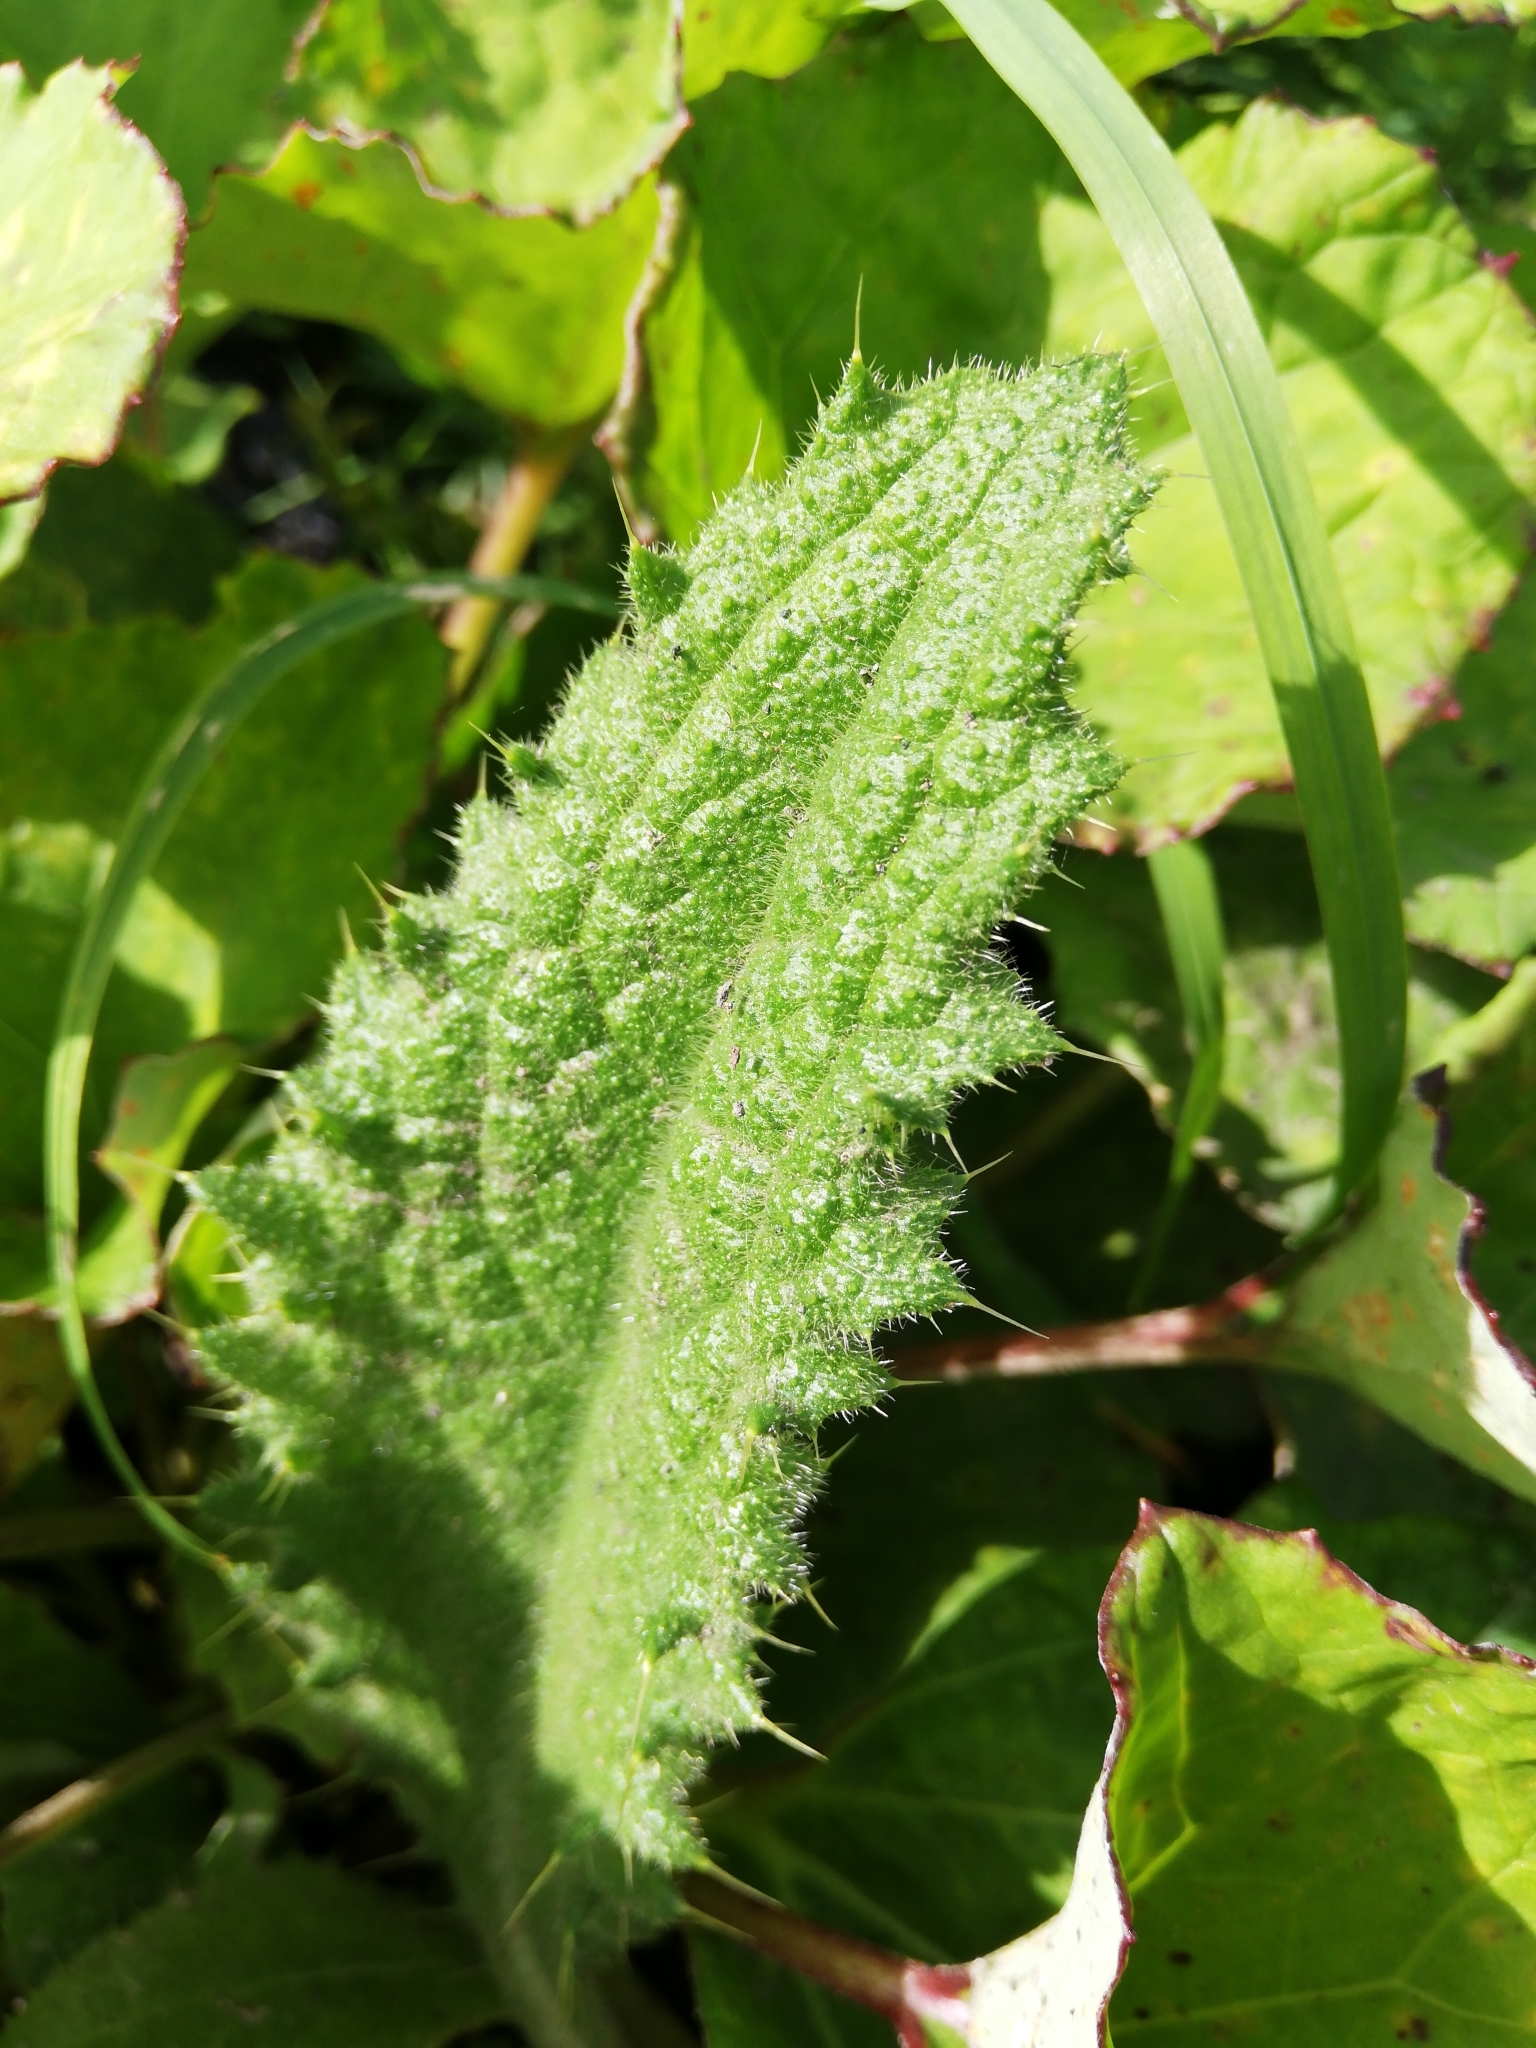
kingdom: Plantae
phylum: Tracheophyta
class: Magnoliopsida
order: Asterales
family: Asteraceae
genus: Cirsium
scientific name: Cirsium vulgare
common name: Bull thistle
